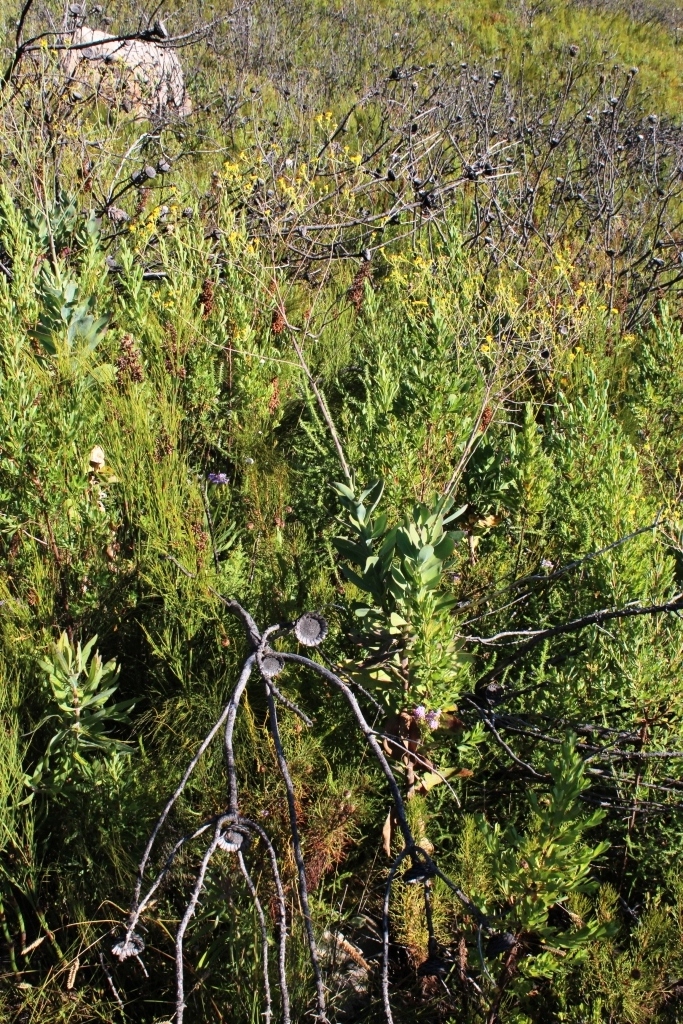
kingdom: Plantae
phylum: Tracheophyta
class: Magnoliopsida
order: Asterales
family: Asteraceae
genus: Othonna
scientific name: Othonna quinquedentata
